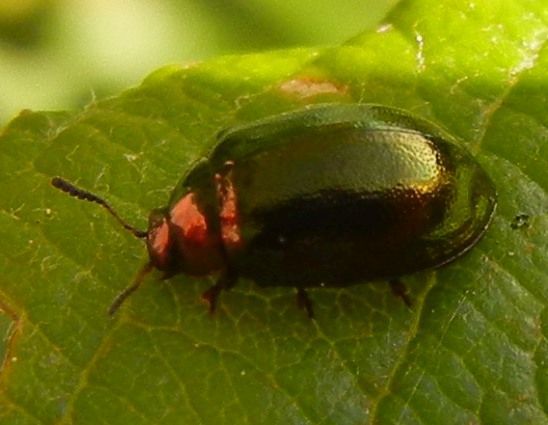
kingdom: Animalia
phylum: Arthropoda
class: Insecta
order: Coleoptera
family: Chrysomelidae
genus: Plagiodera
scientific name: Plagiodera versicolora
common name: Imported willow leaf beetle
